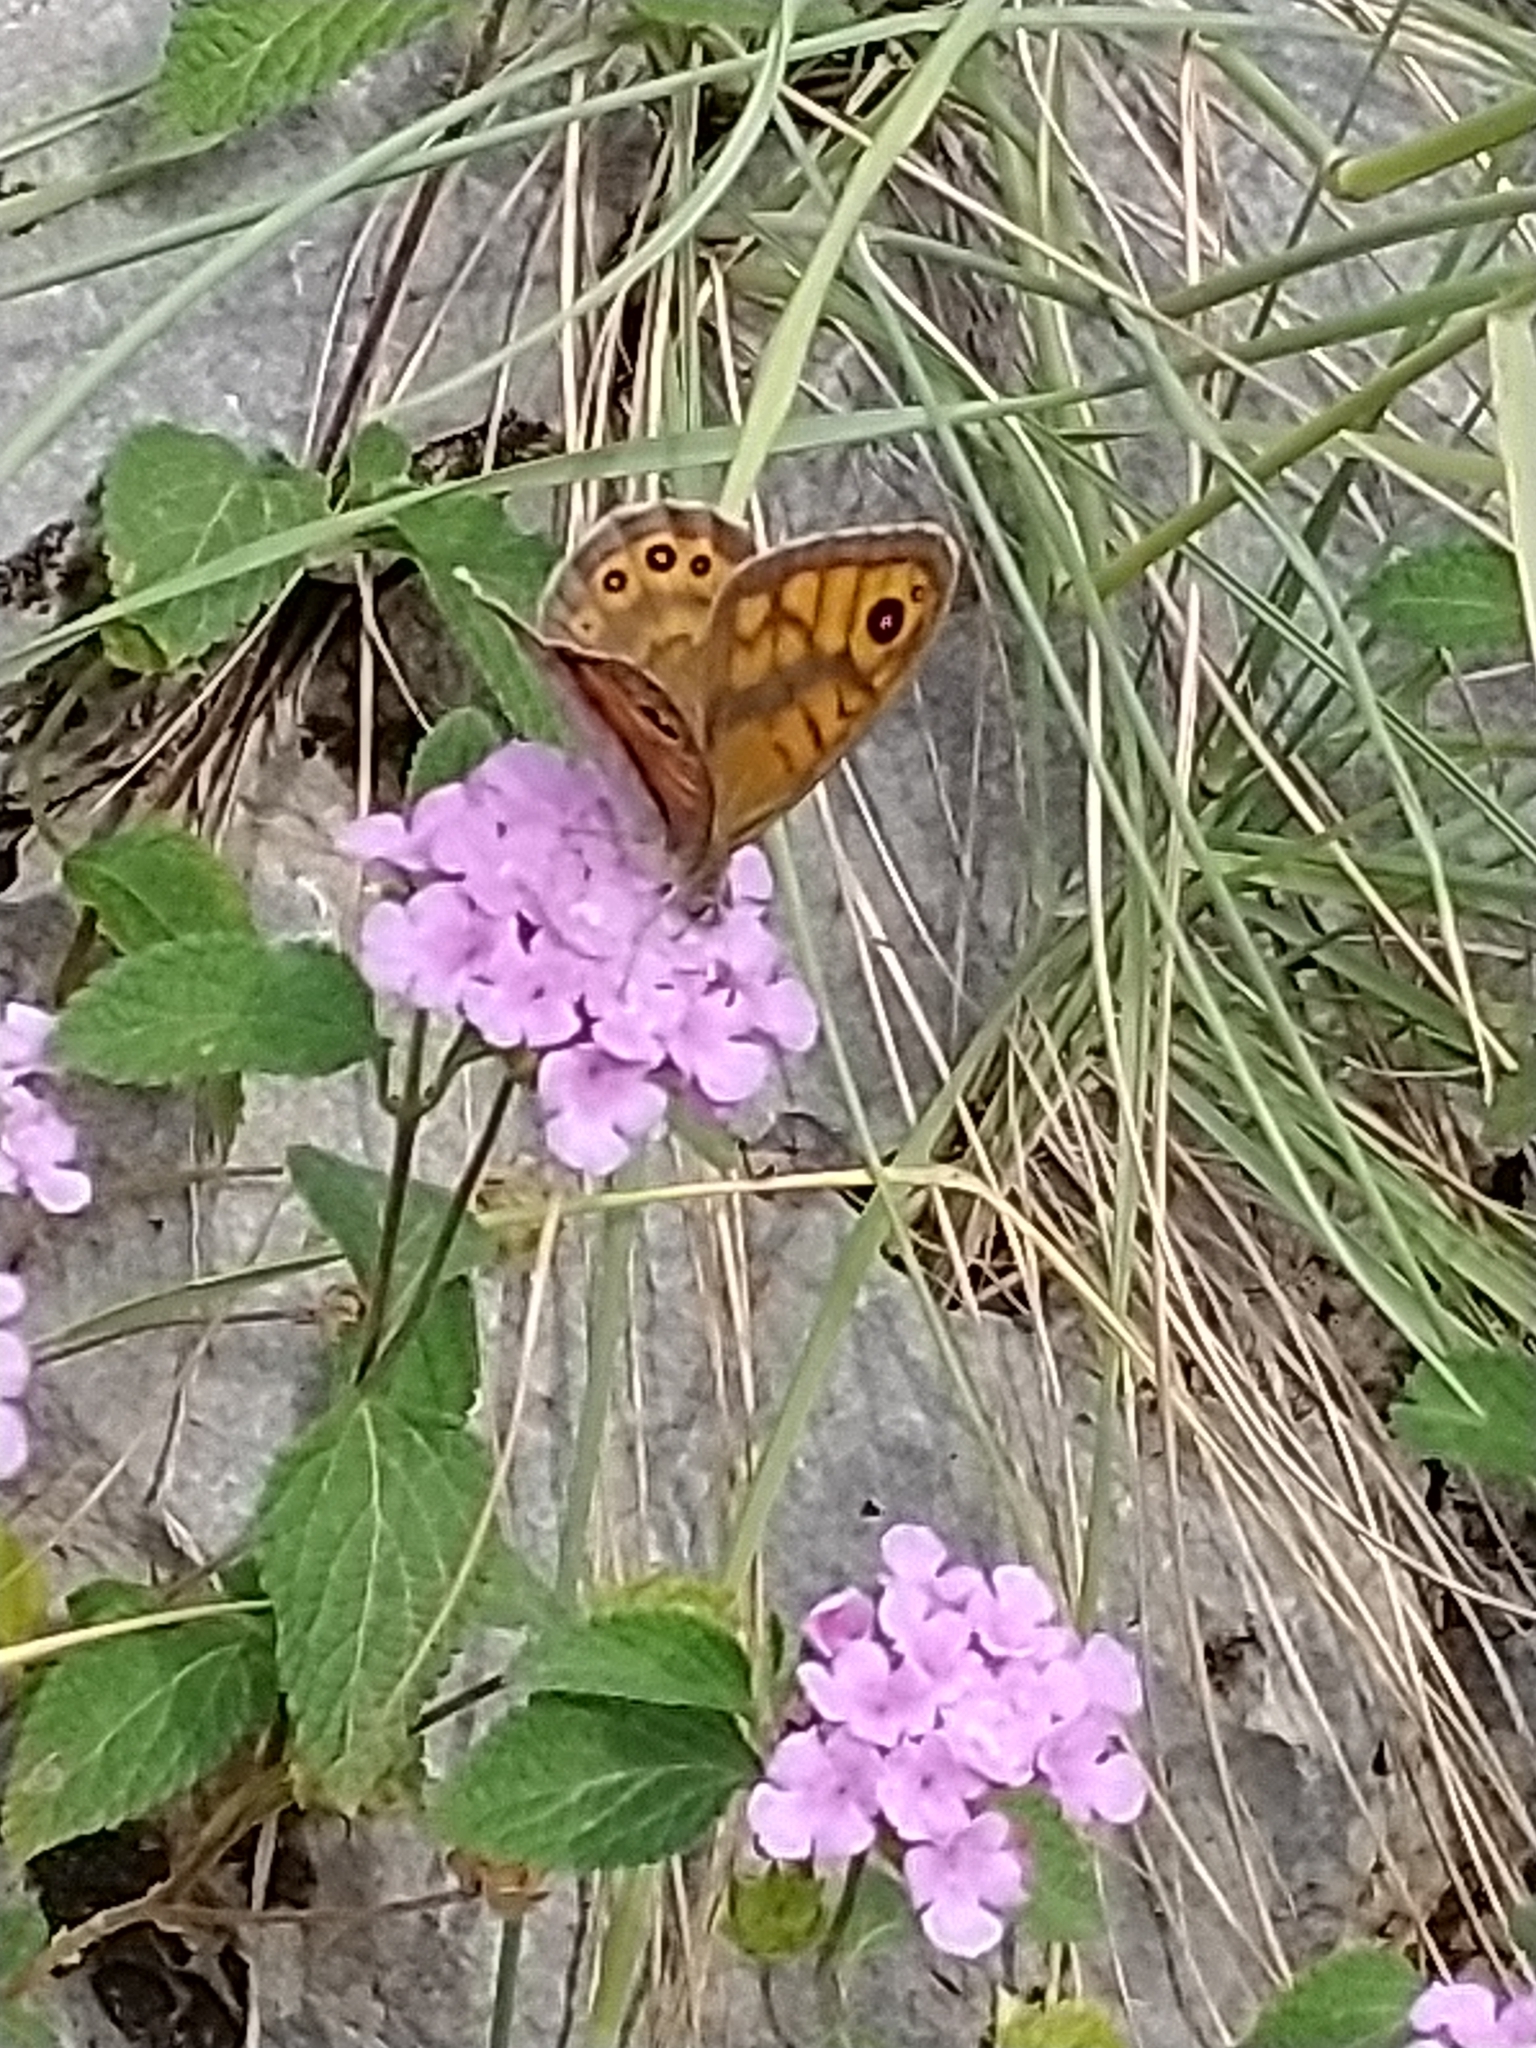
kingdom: Animalia
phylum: Arthropoda
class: Insecta
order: Lepidoptera
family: Nymphalidae
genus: Pararge
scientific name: Pararge Lasiommata megera
